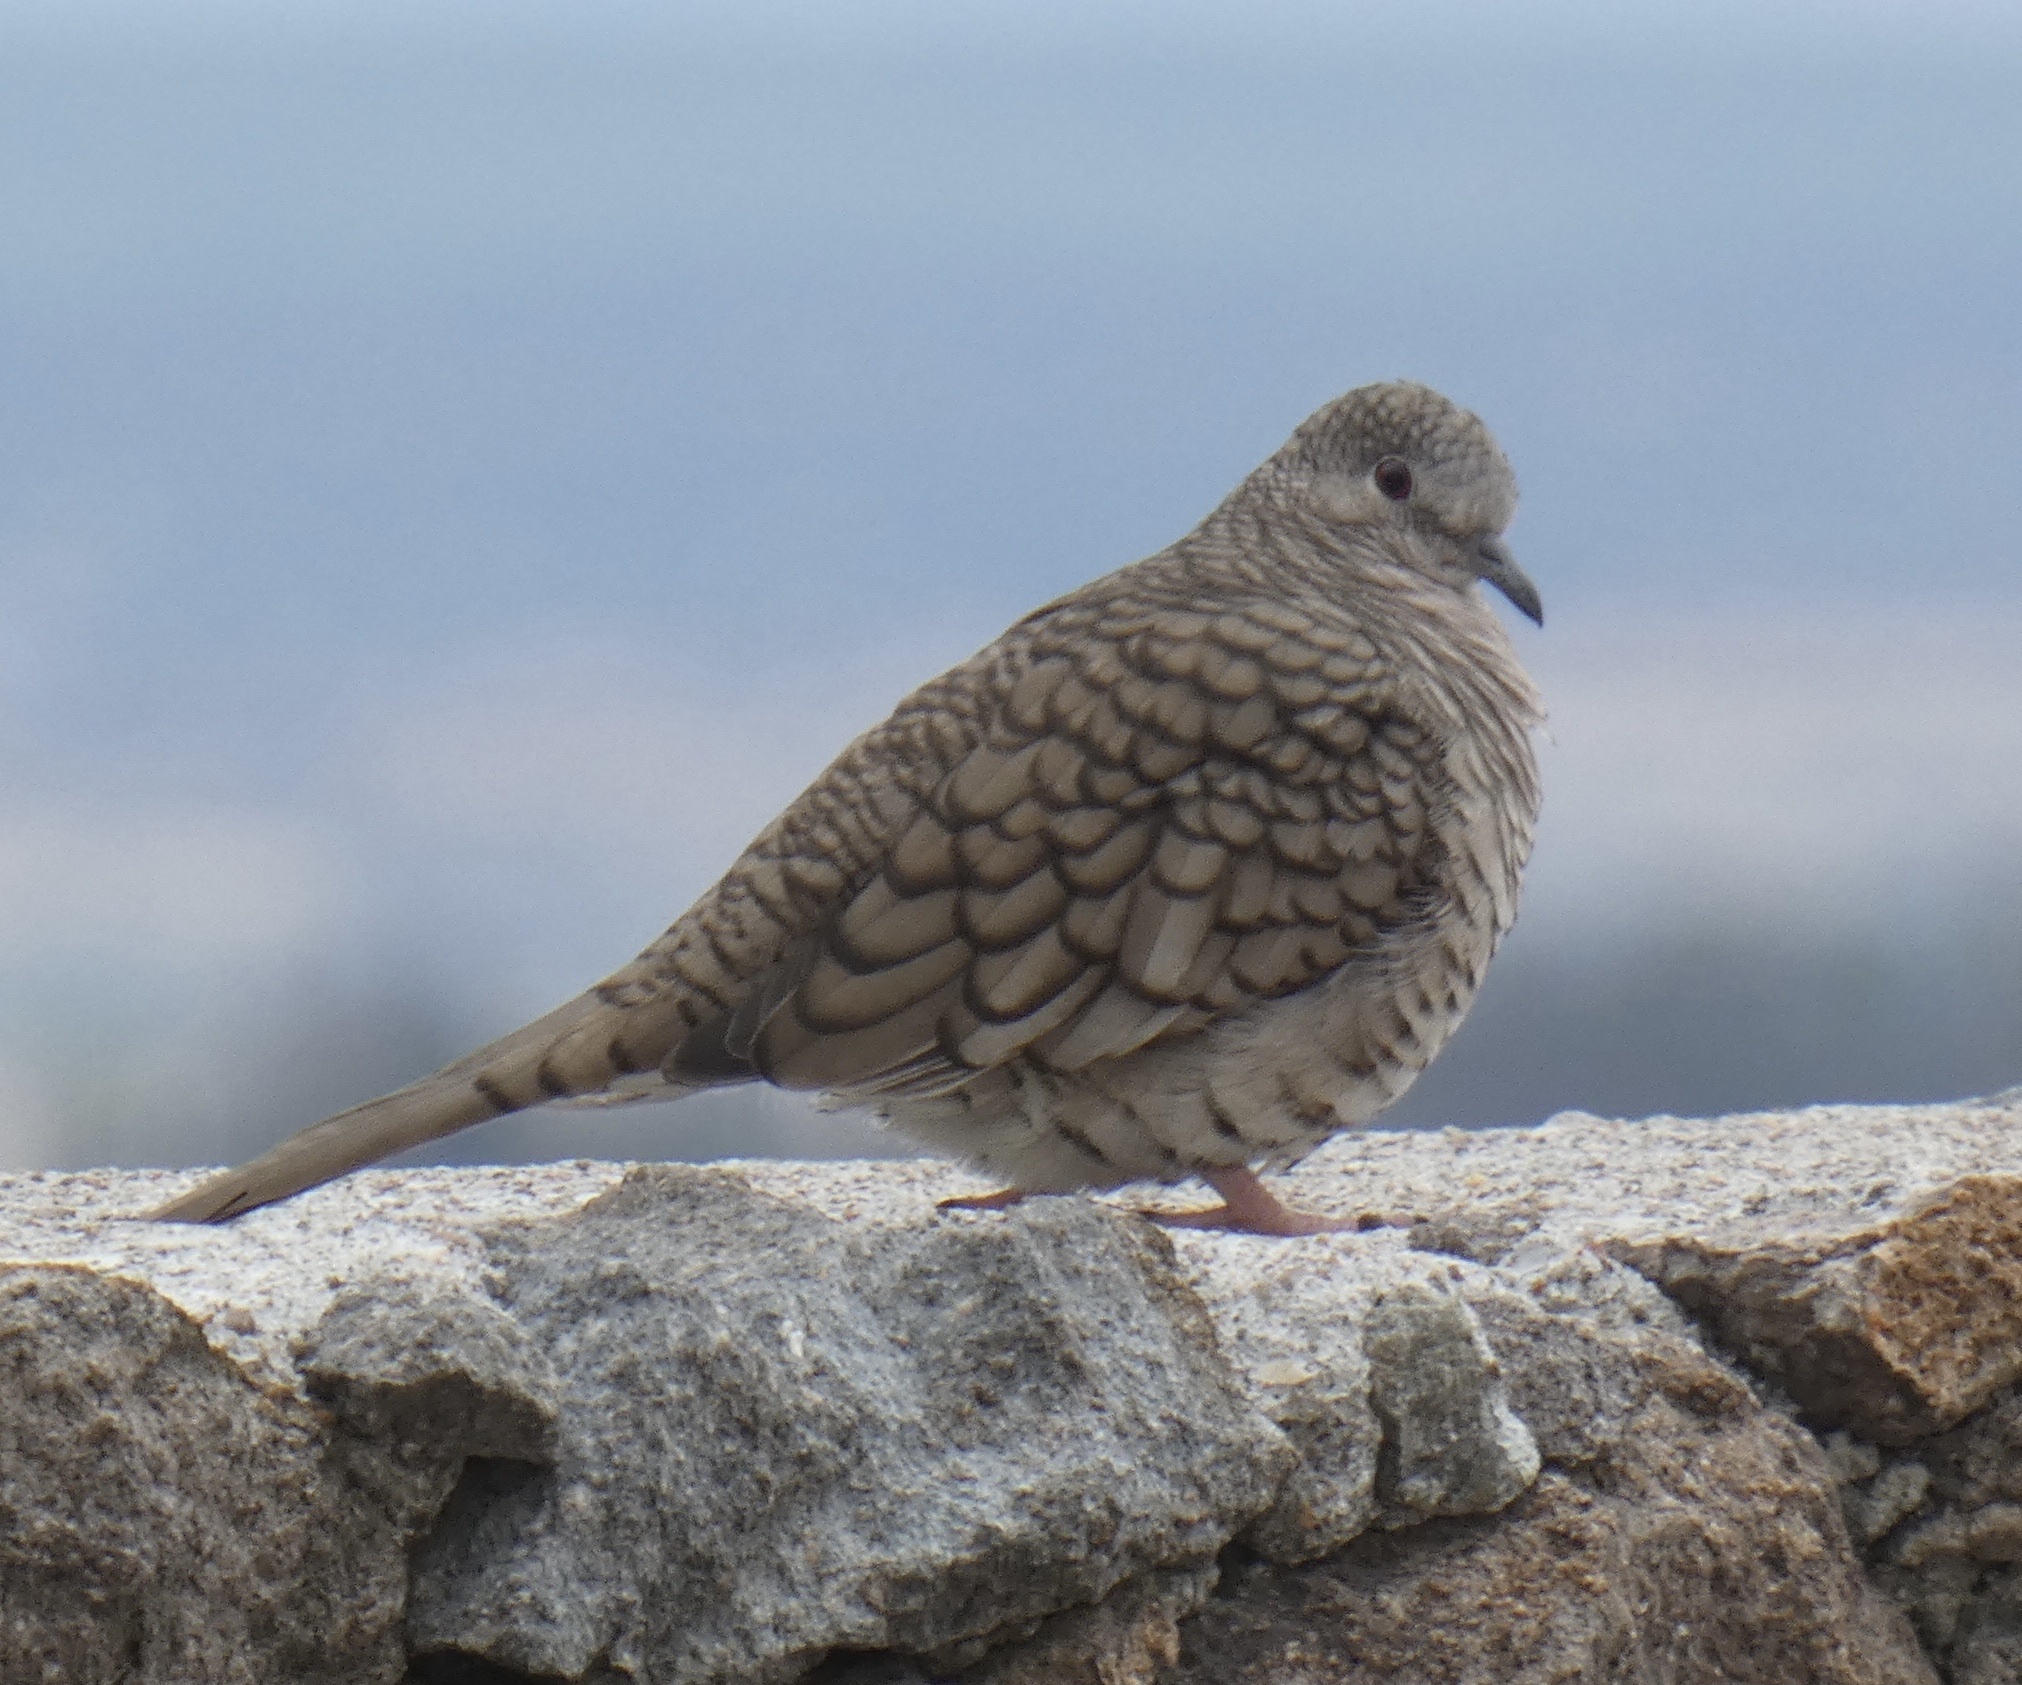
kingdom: Animalia
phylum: Chordata
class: Aves
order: Columbiformes
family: Columbidae
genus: Columbina
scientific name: Columbina inca
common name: Inca dove
